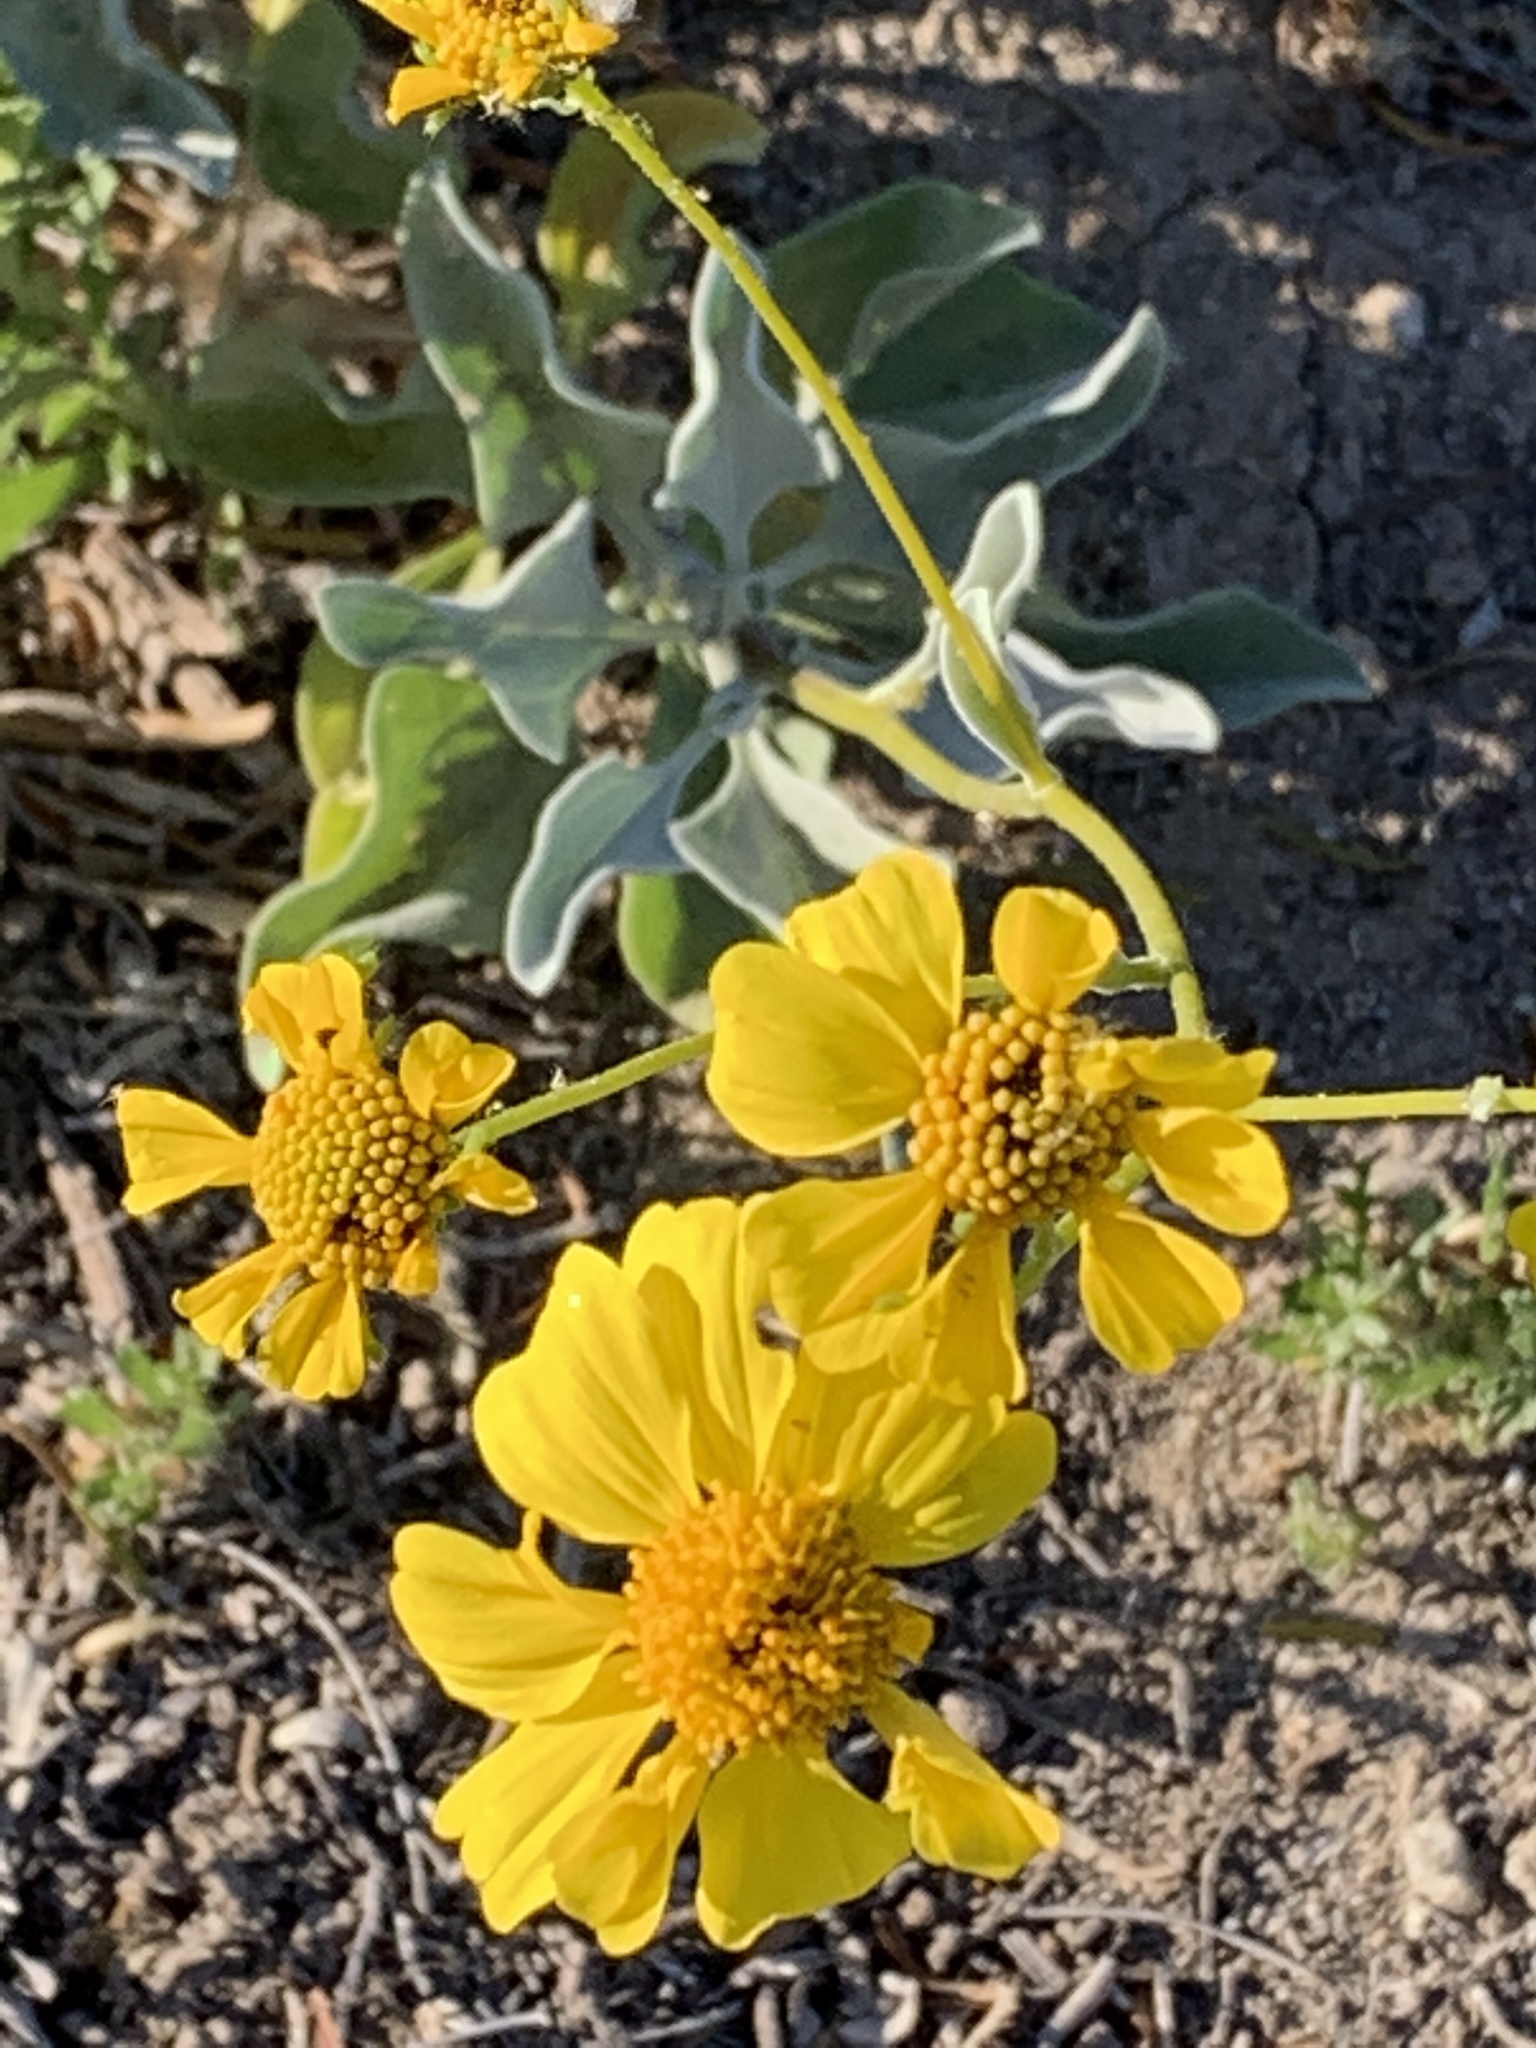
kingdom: Plantae
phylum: Tracheophyta
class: Magnoliopsida
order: Asterales
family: Asteraceae
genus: Encelia
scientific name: Encelia farinosa
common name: Brittlebush
